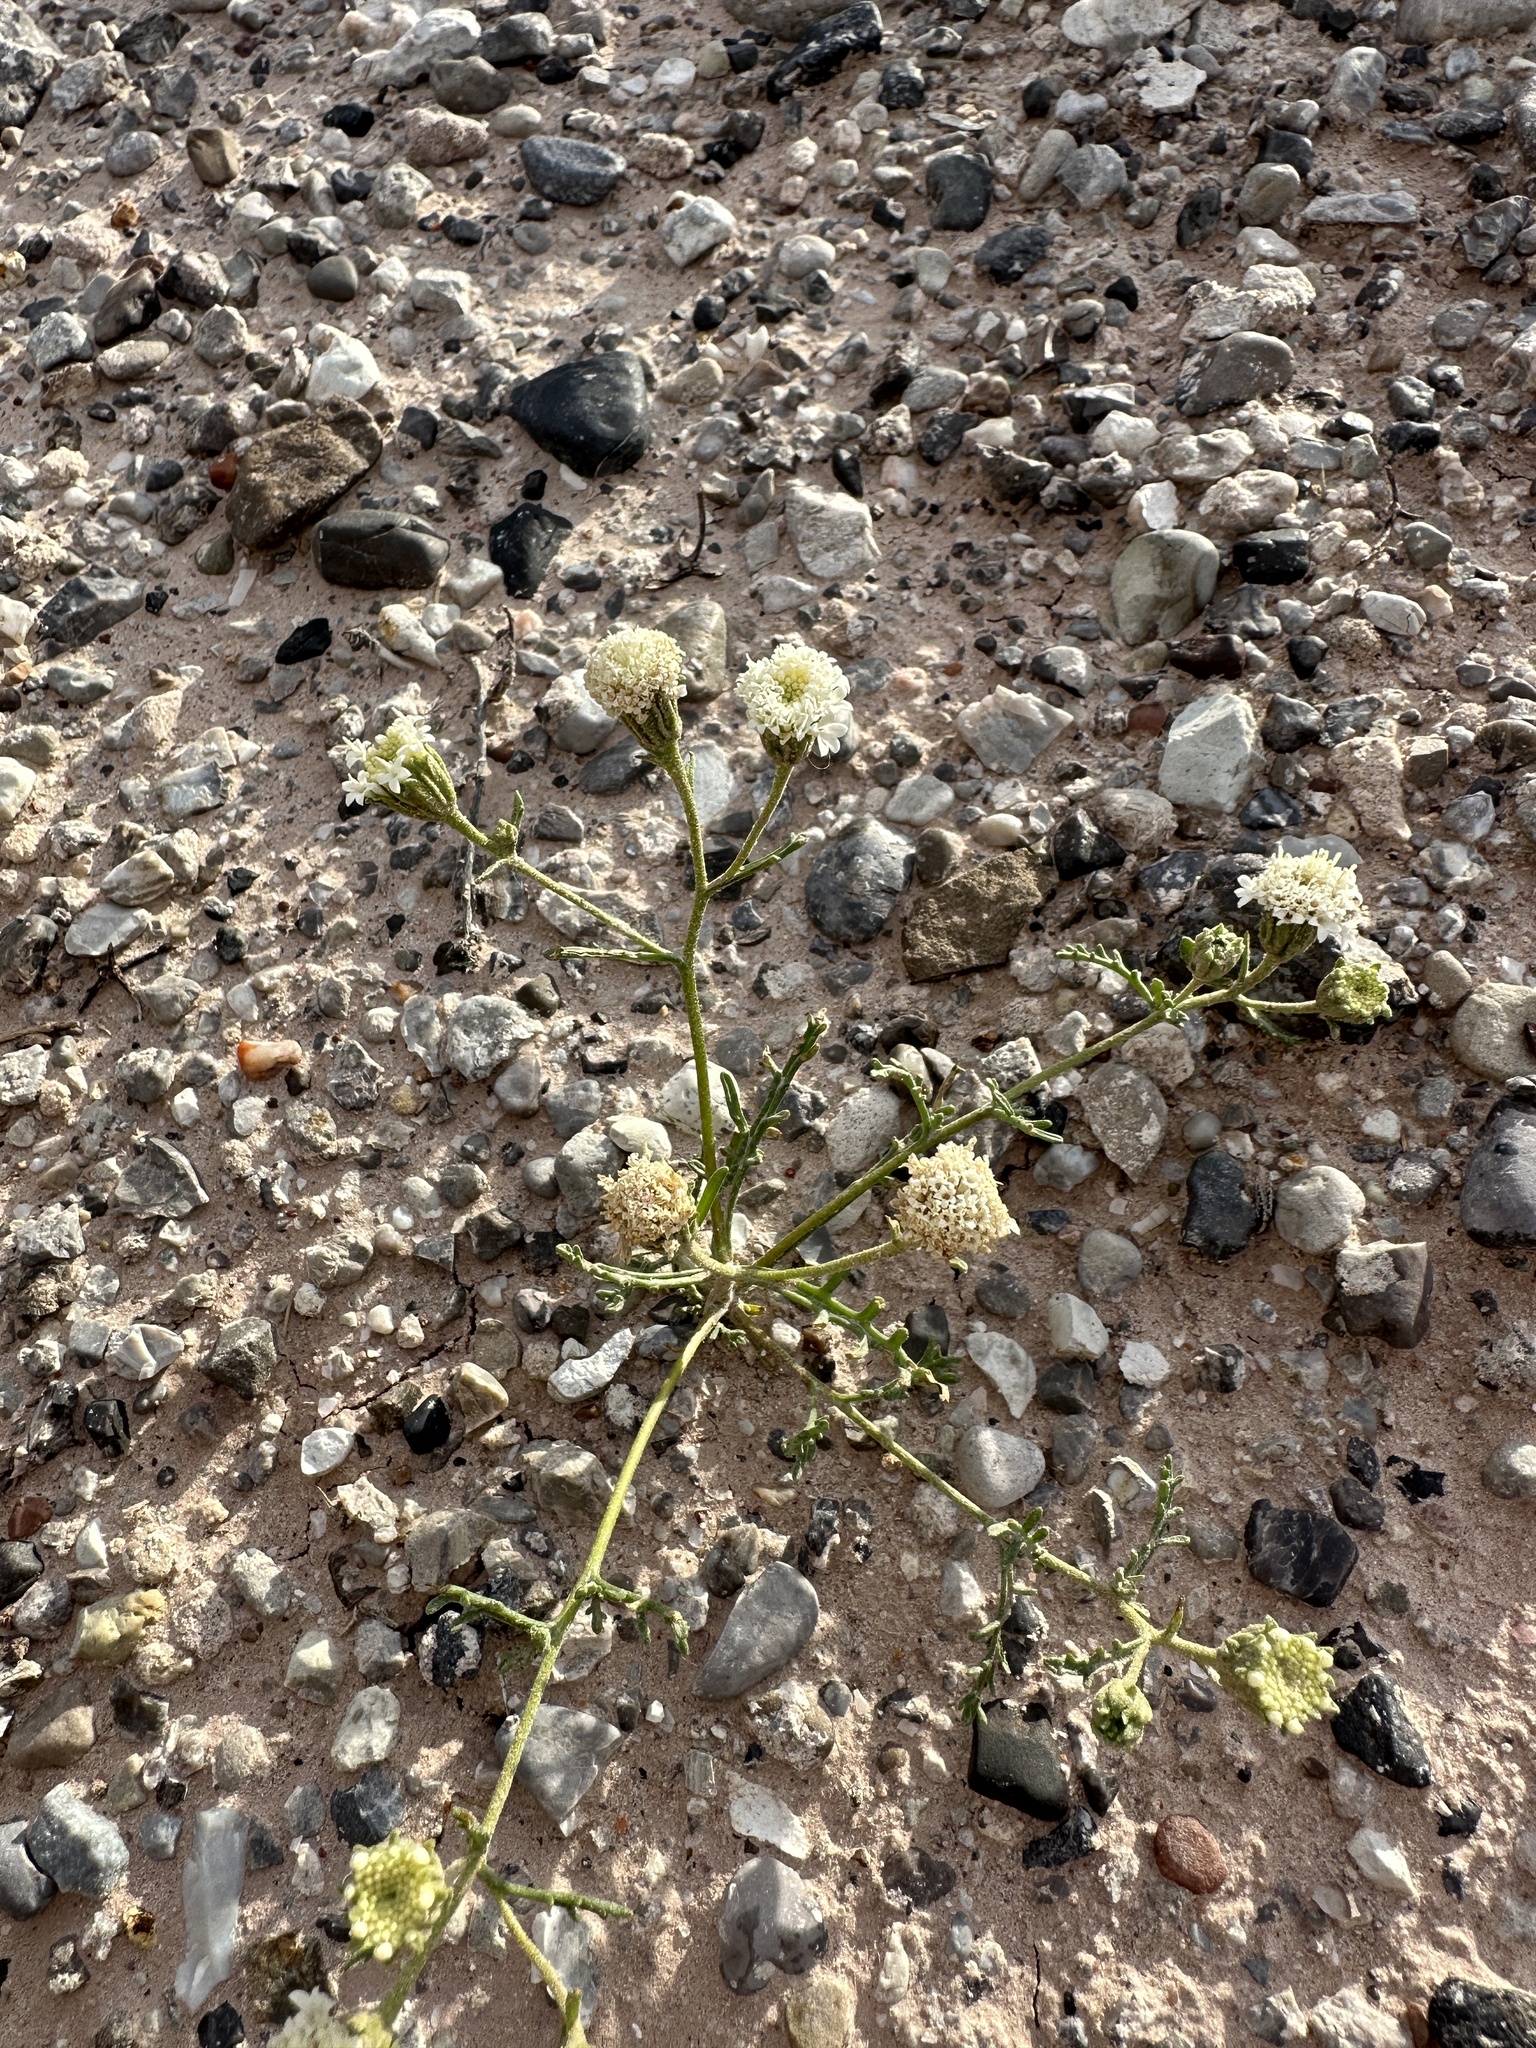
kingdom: Plantae
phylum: Tracheophyta
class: Magnoliopsida
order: Asterales
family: Asteraceae
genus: Chaenactis
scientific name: Chaenactis stevioides
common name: Desert pincushion
